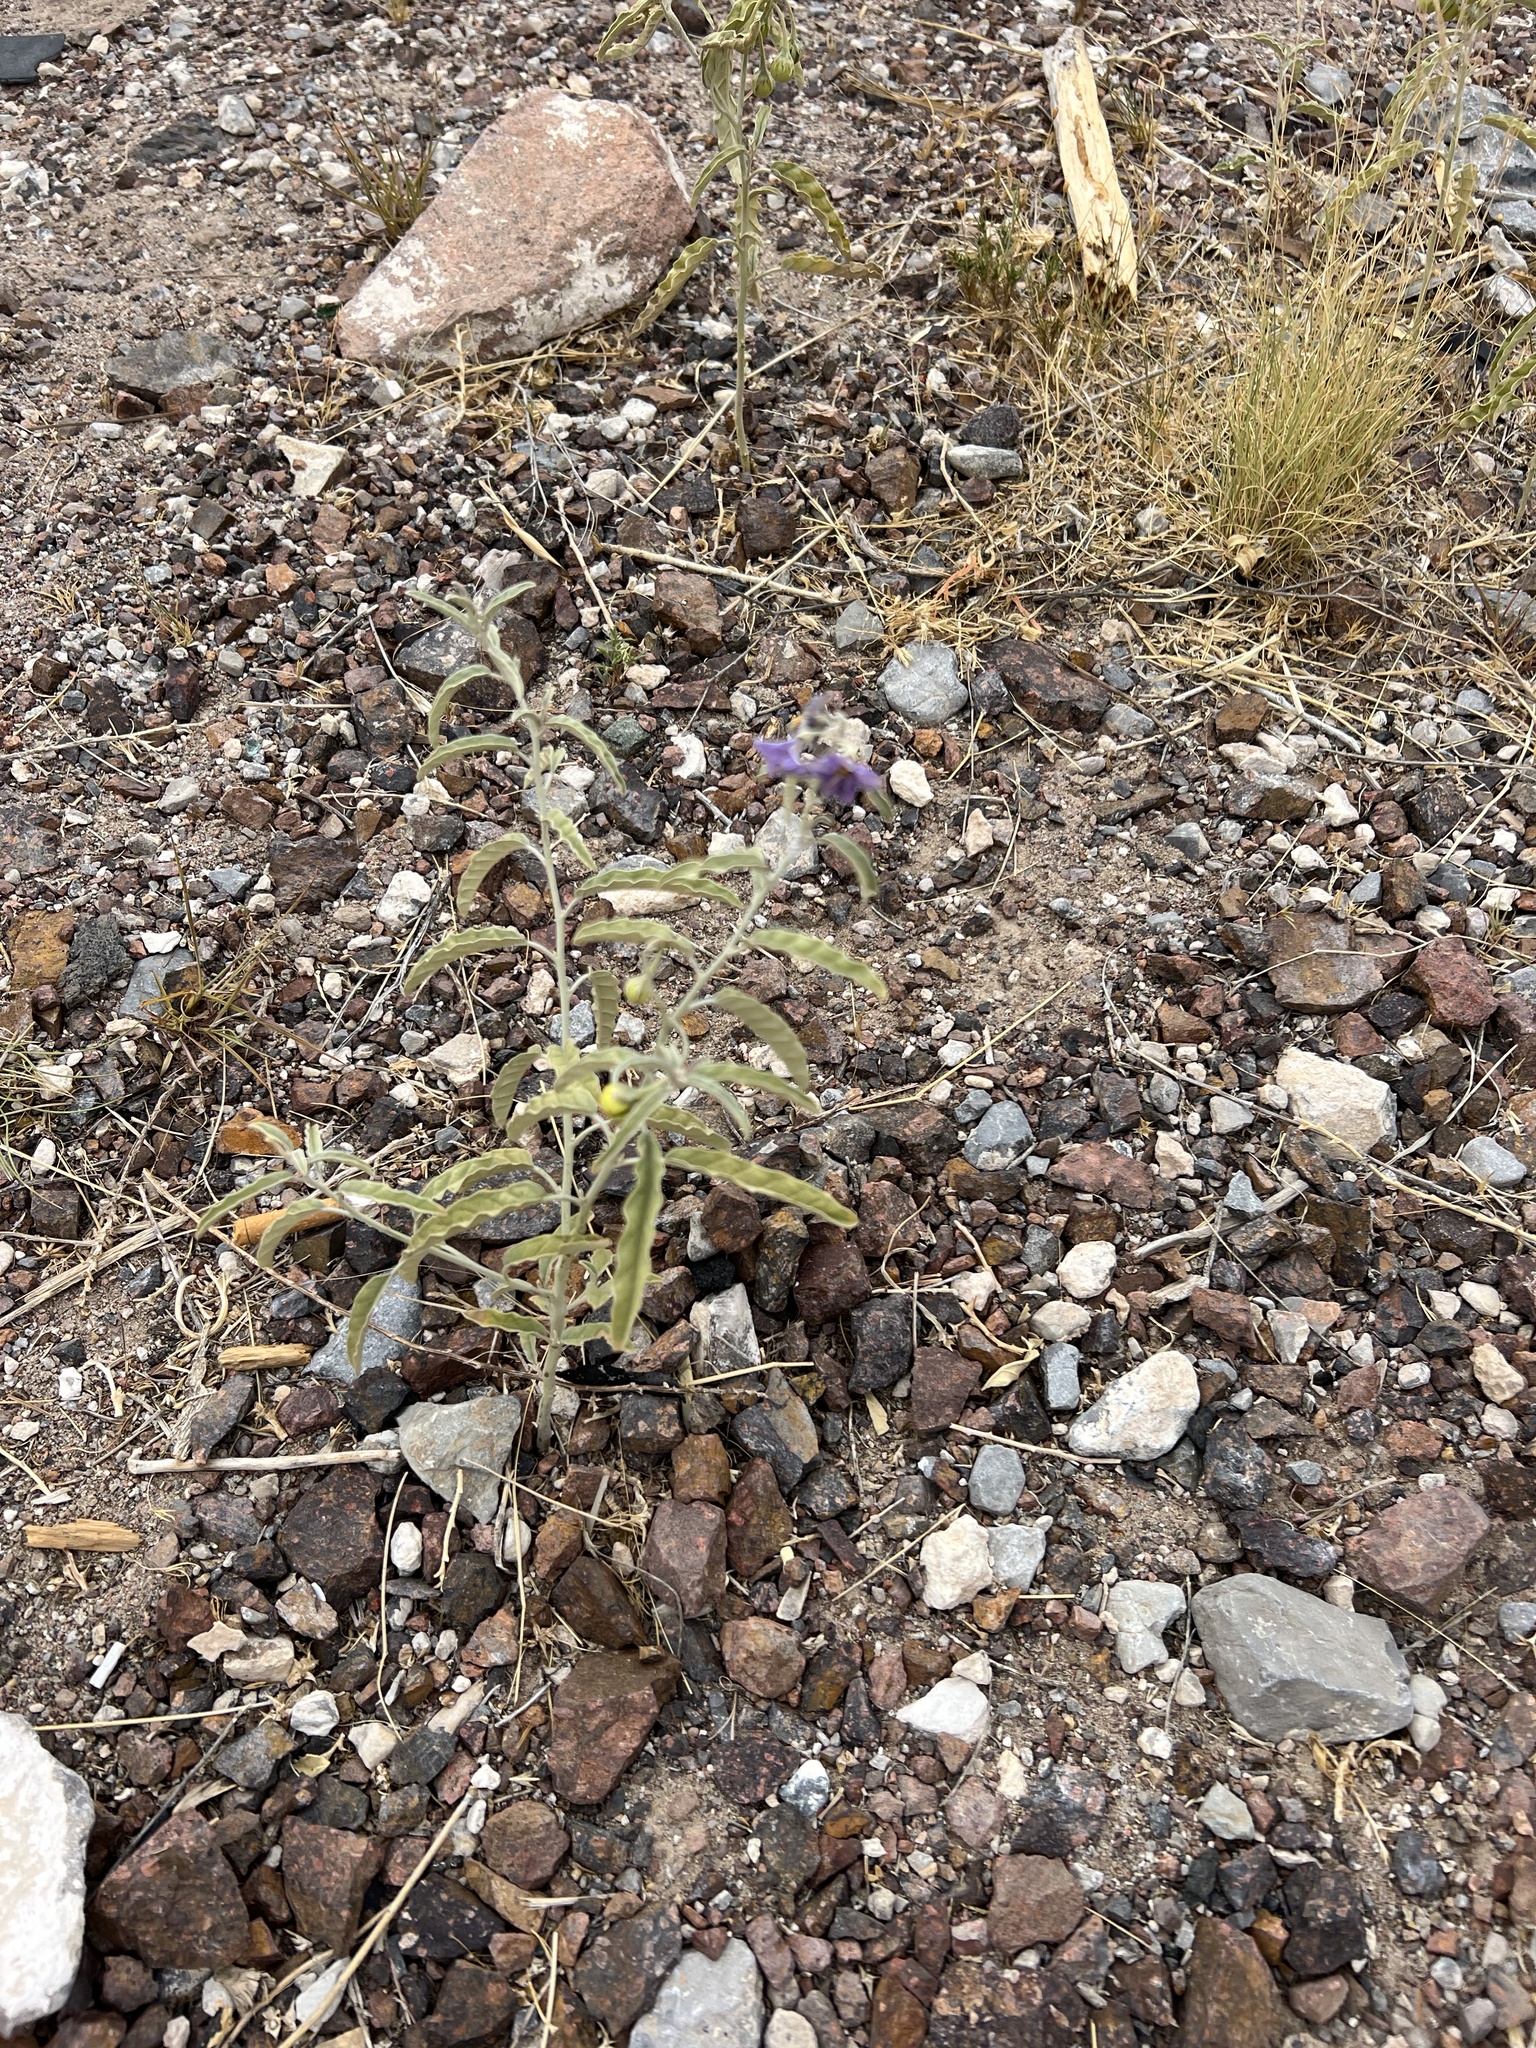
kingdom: Plantae
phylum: Tracheophyta
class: Magnoliopsida
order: Solanales
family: Solanaceae
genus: Solanum
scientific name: Solanum elaeagnifolium
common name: Silverleaf nightshade
